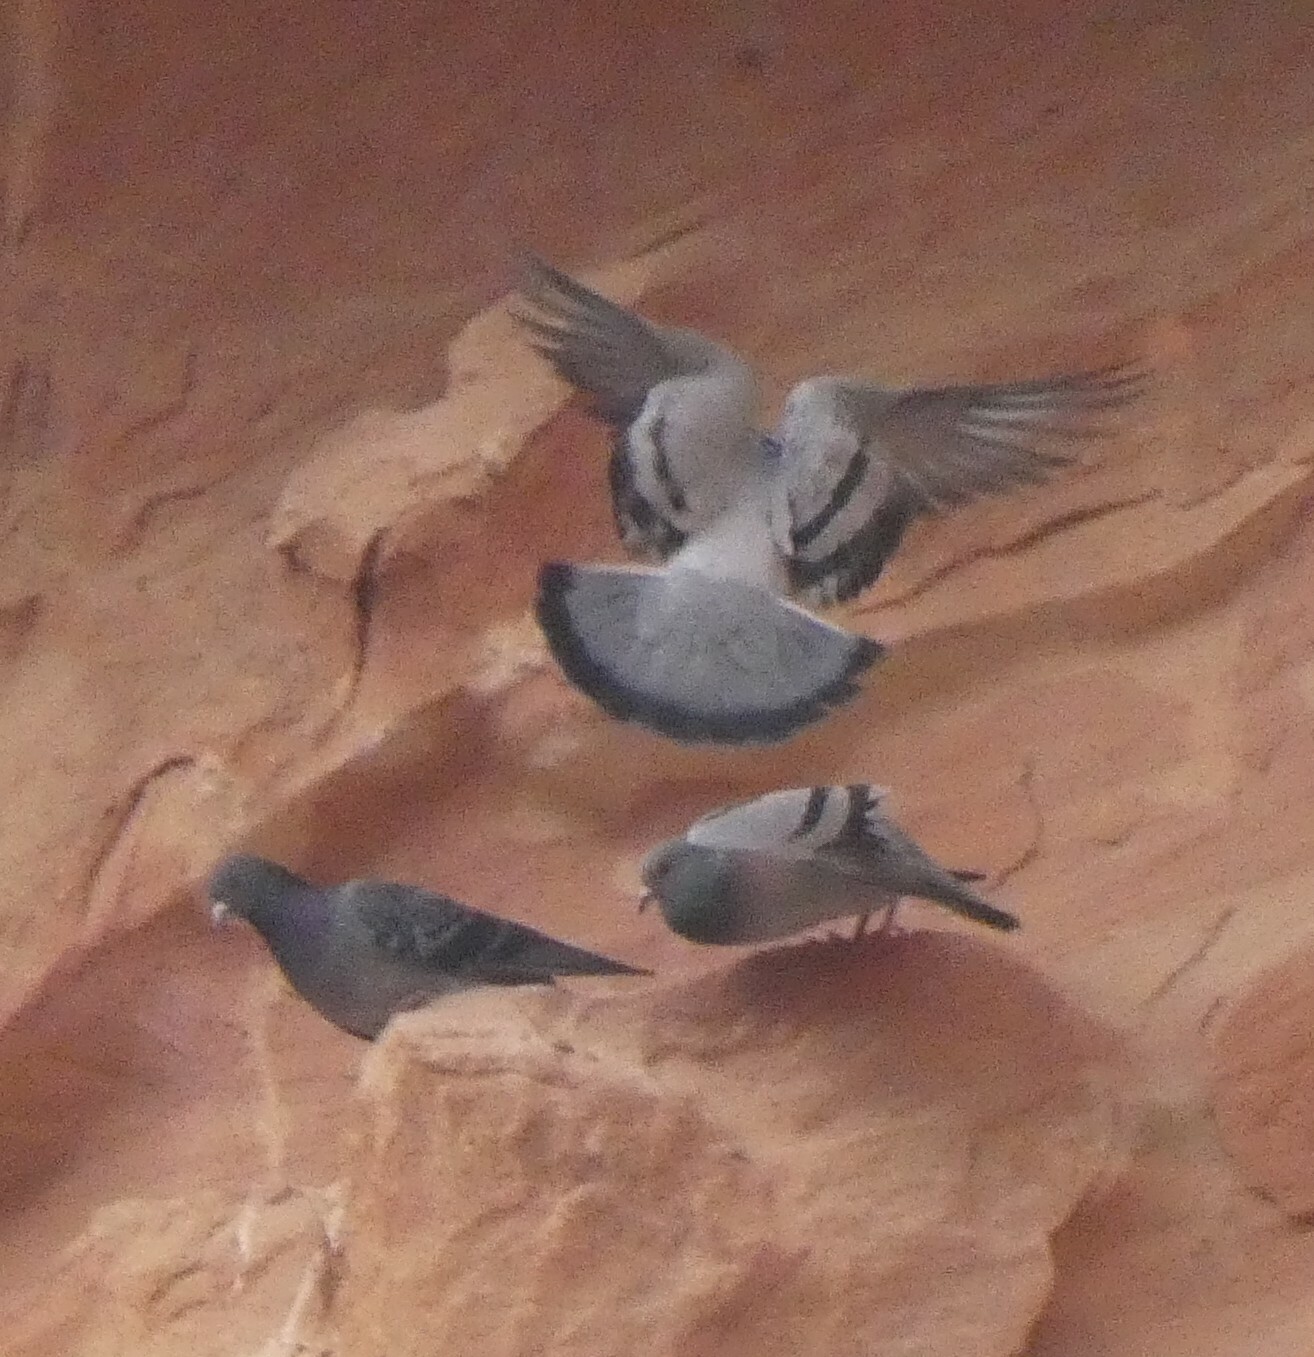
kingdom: Animalia
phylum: Chordata
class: Aves
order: Columbiformes
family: Columbidae
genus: Columba
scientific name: Columba livia
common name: Rock pigeon
